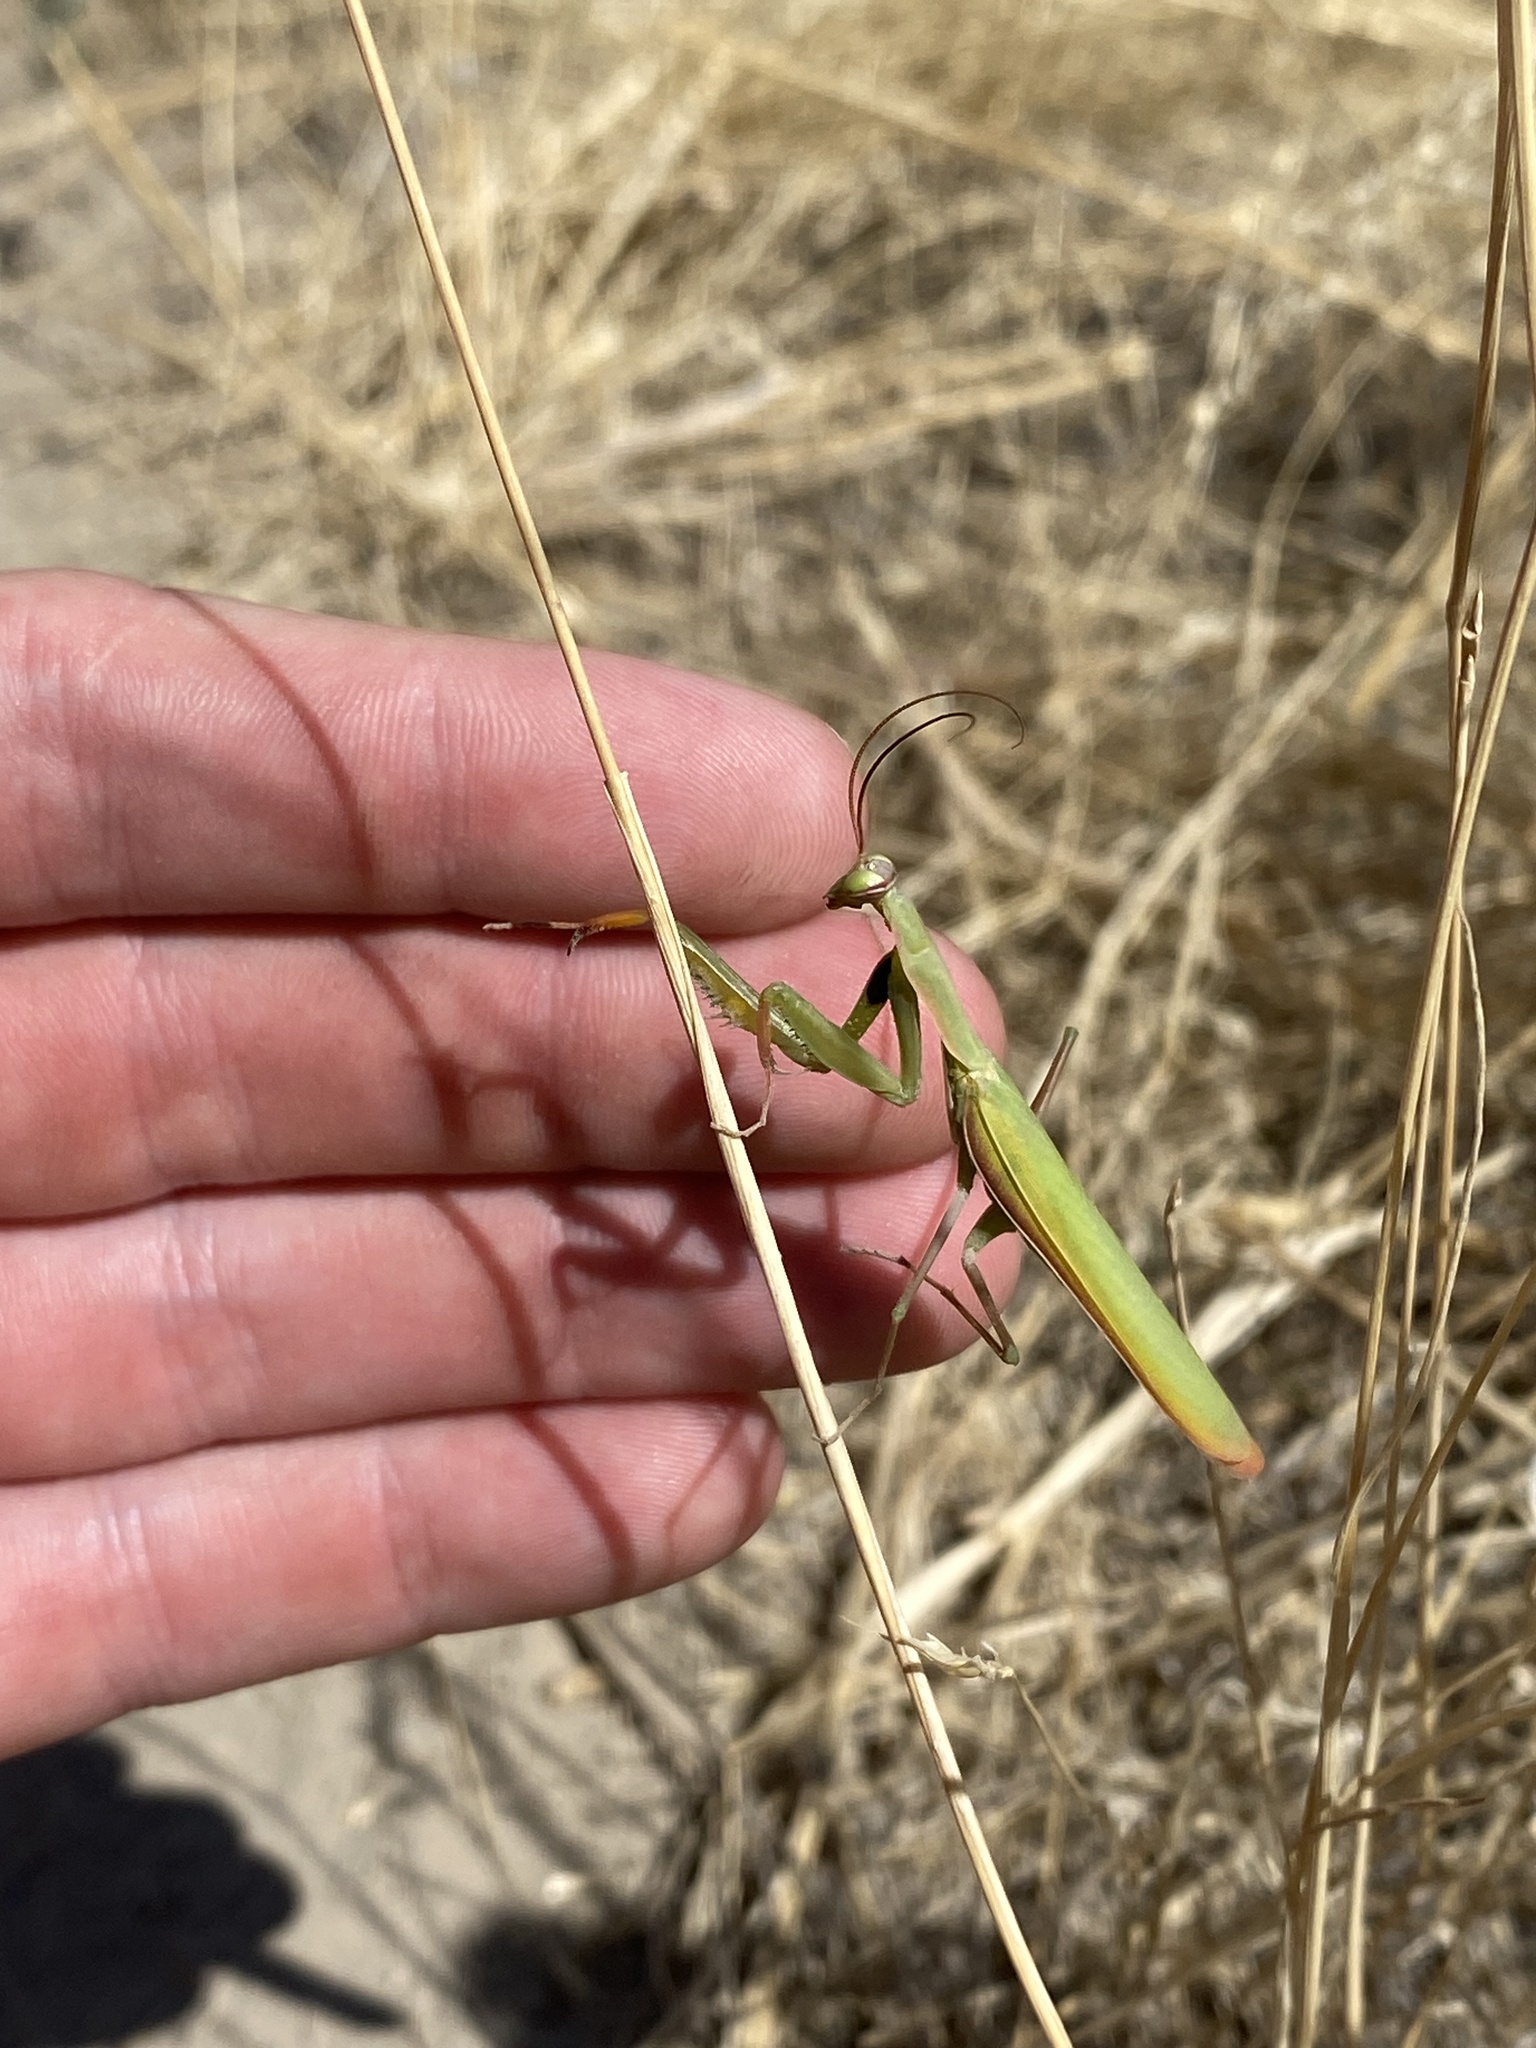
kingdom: Animalia
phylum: Arthropoda
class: Insecta
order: Mantodea
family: Mantidae
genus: Mantis
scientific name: Mantis religiosa
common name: Praying mantis
